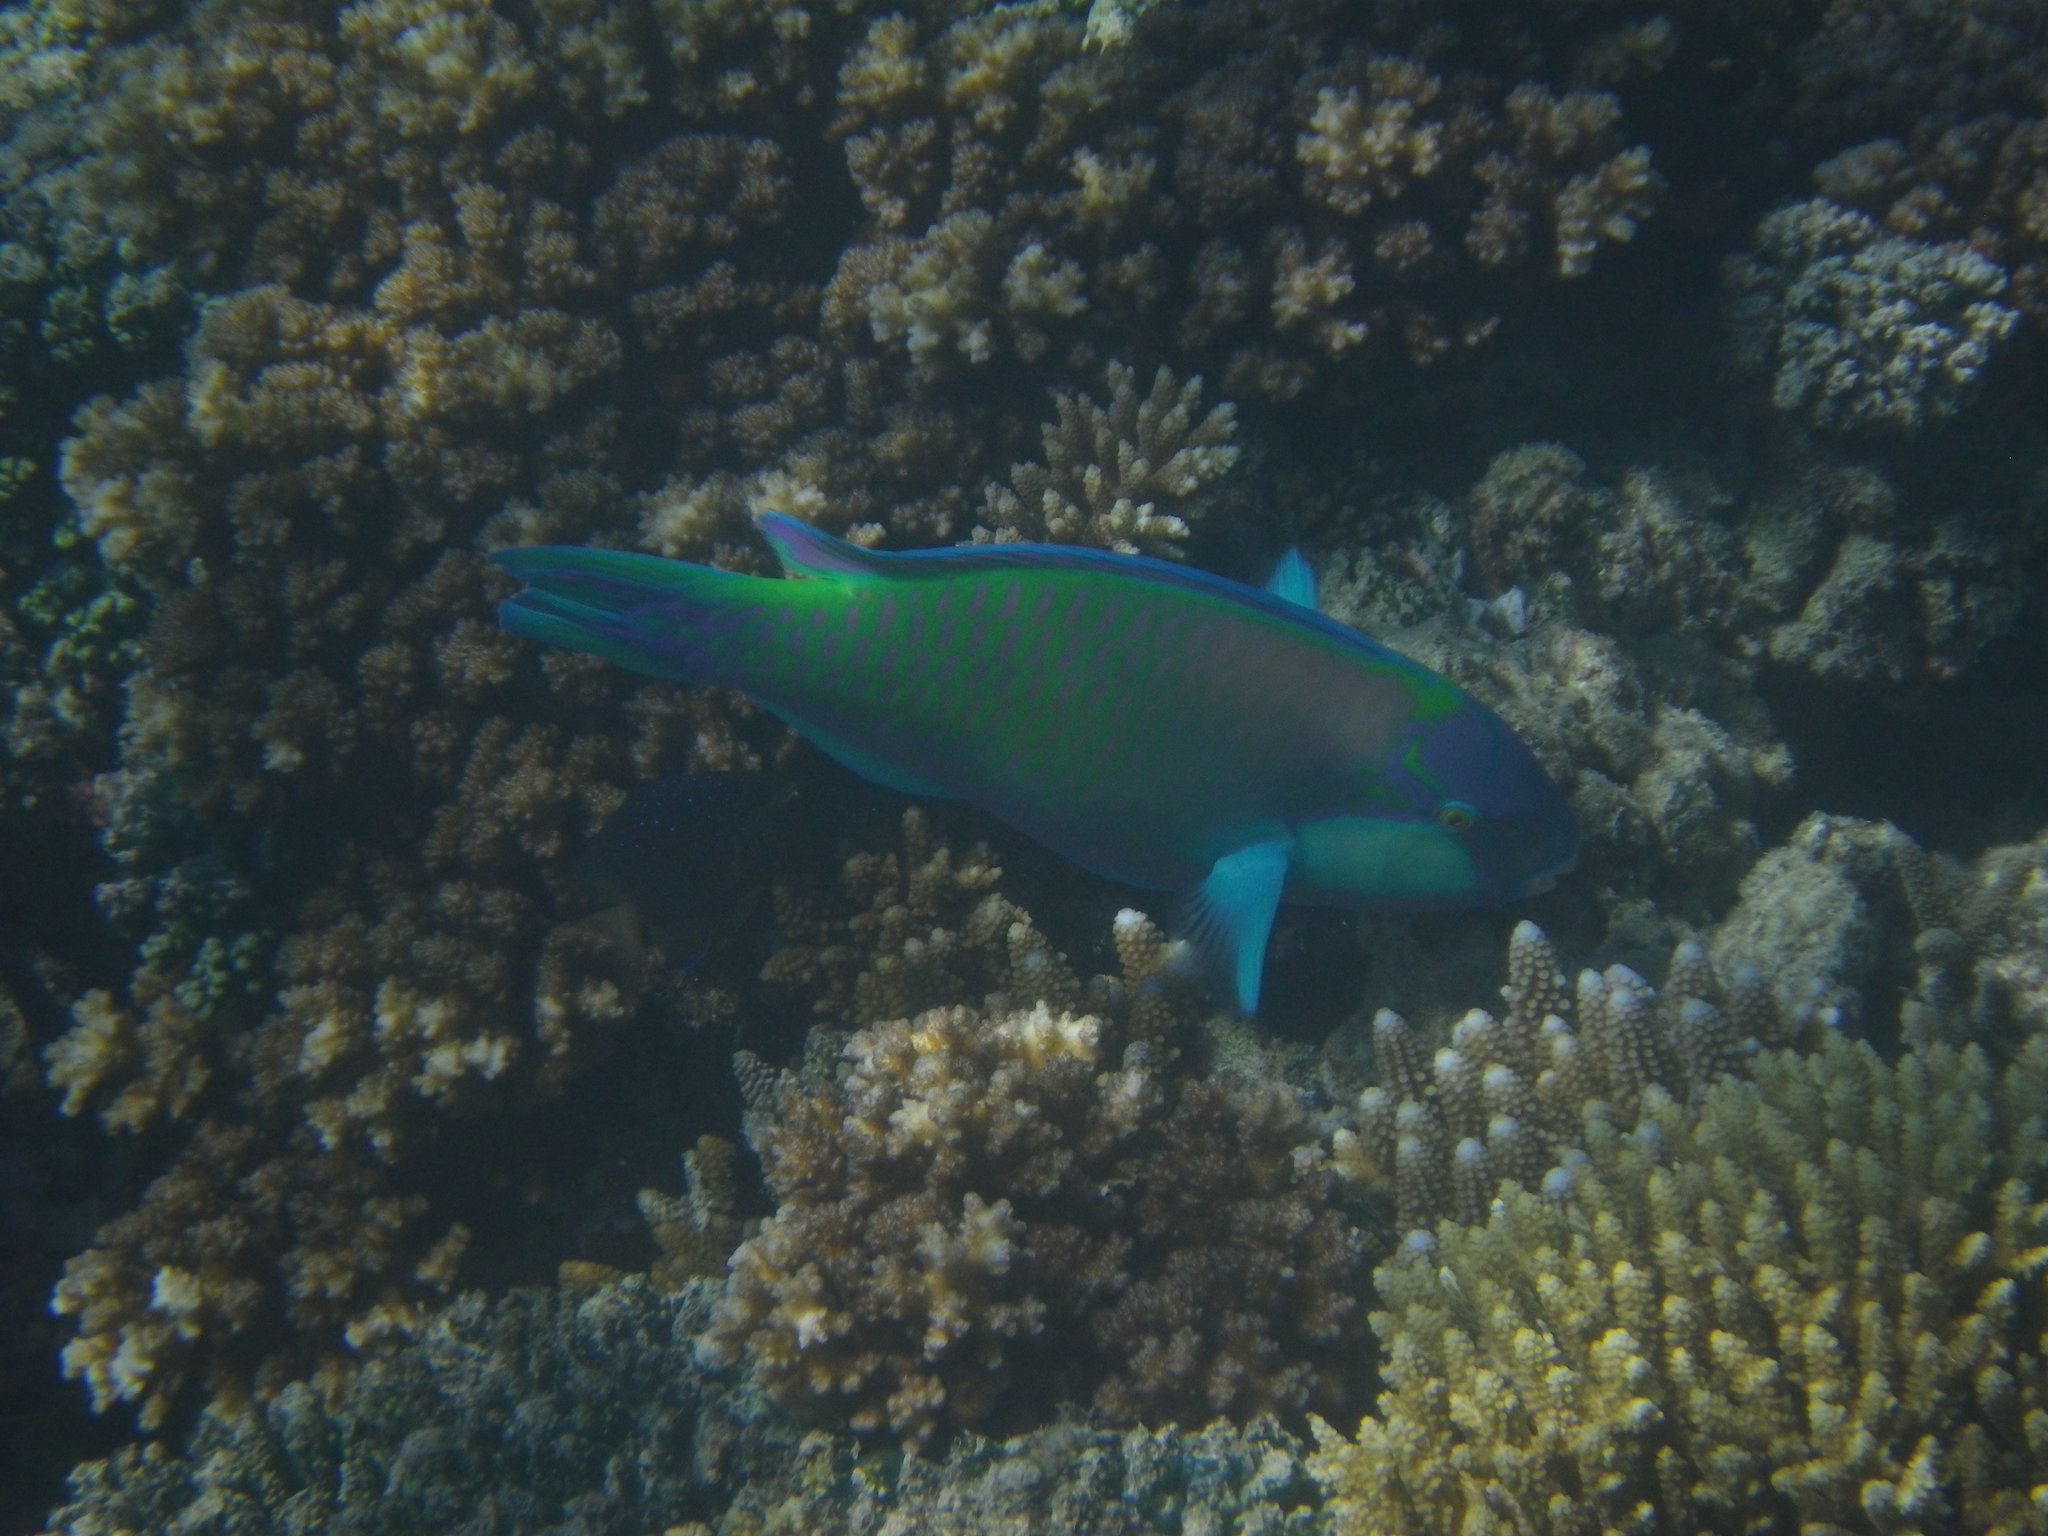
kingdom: Animalia
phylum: Chordata
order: Perciformes
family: Scaridae
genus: Chlorurus
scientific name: Chlorurus bleekeri
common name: Bleeker's parrotfish
